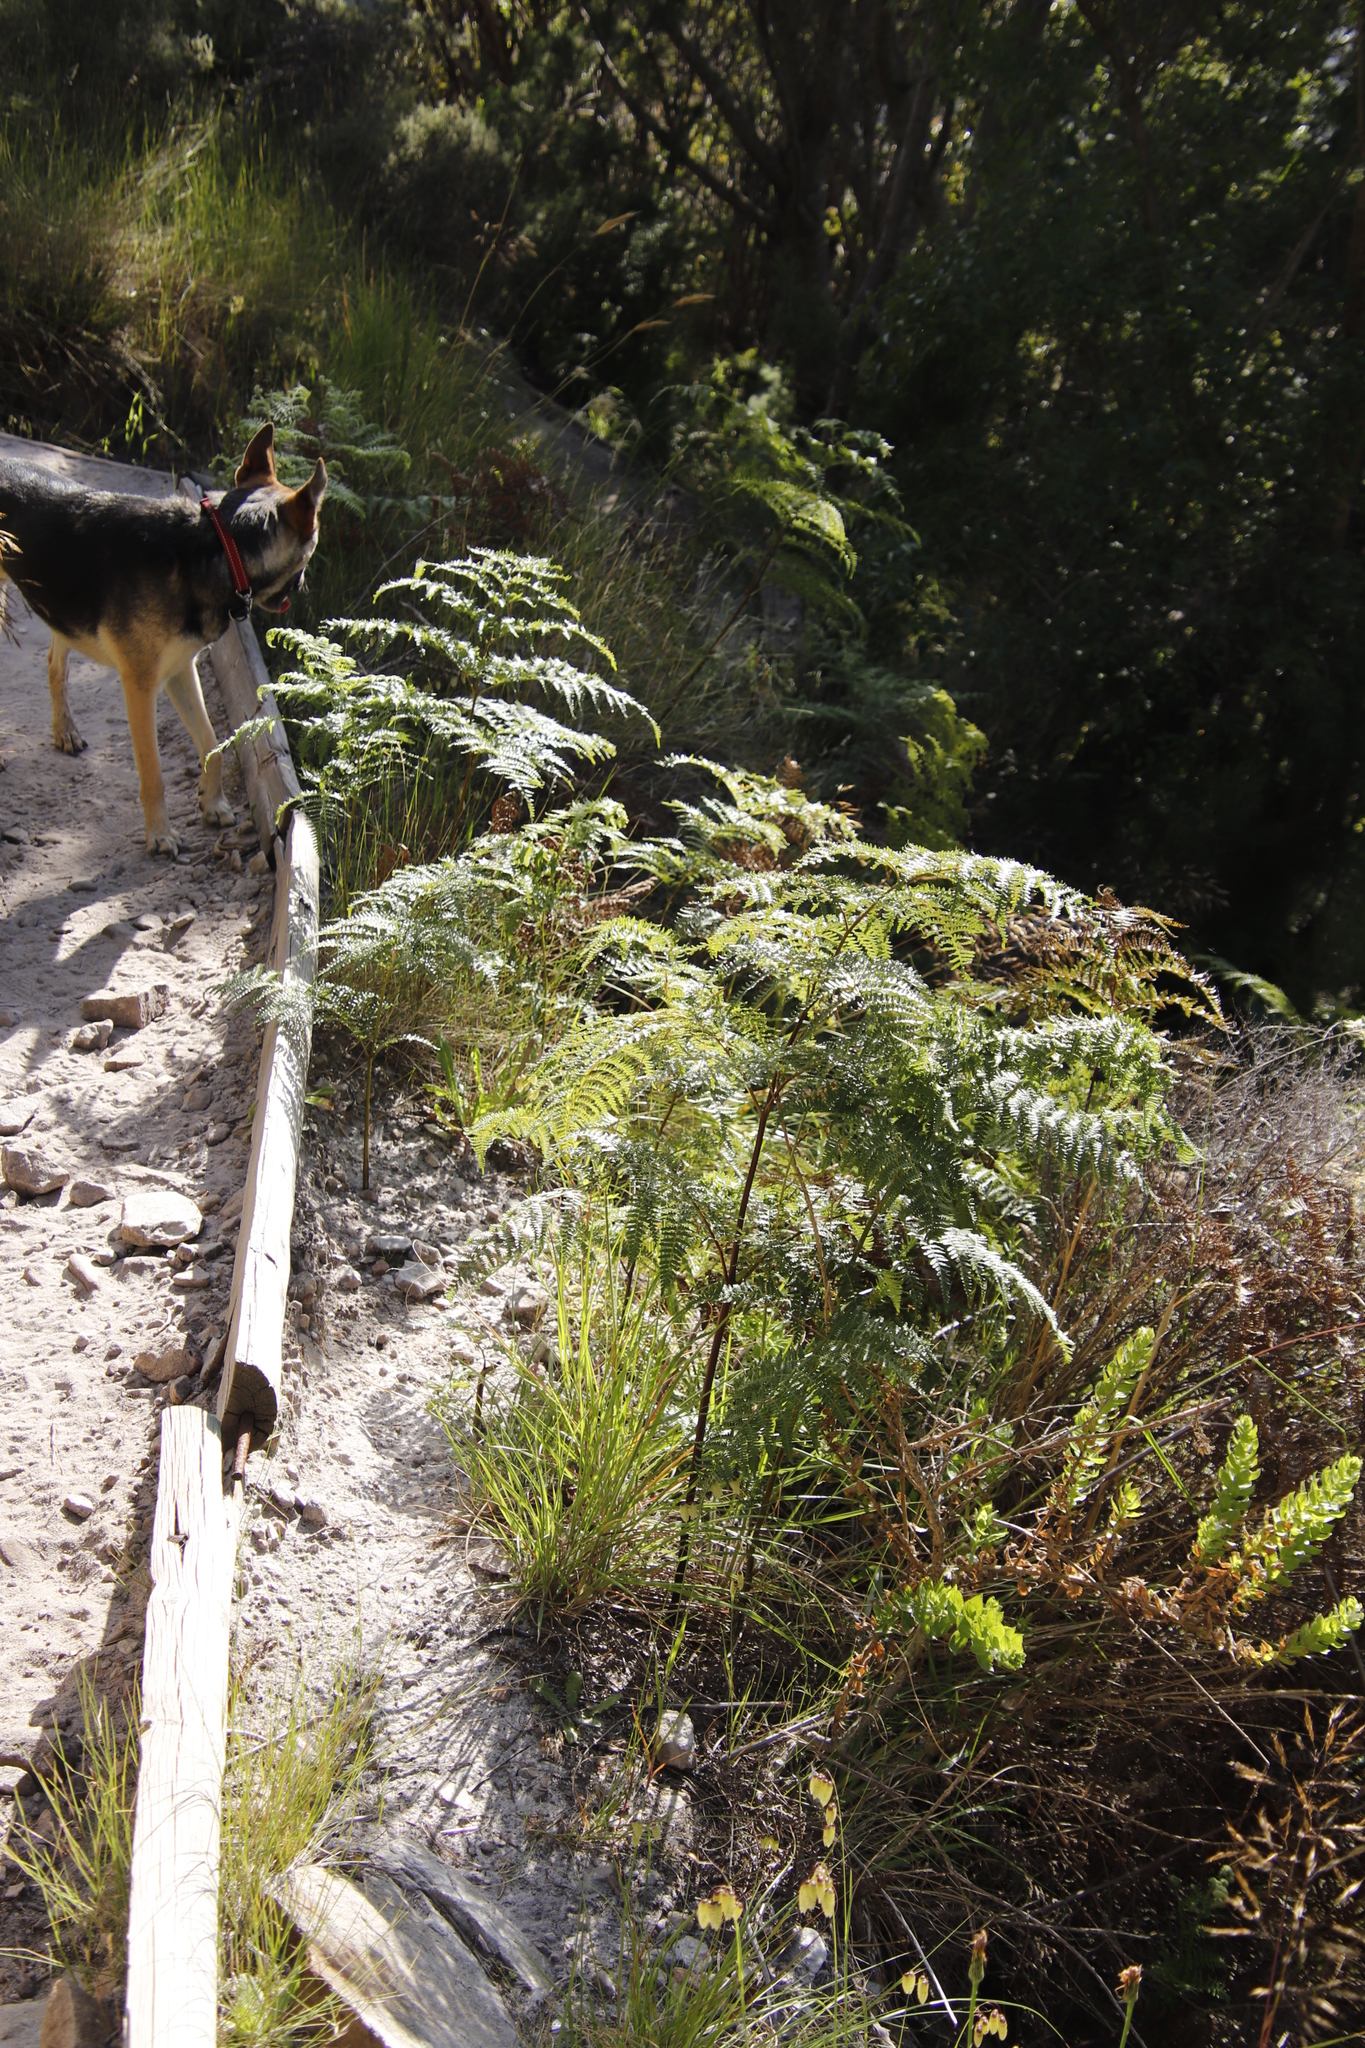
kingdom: Plantae
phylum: Tracheophyta
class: Polypodiopsida
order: Polypodiales
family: Dennstaedtiaceae
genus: Pteridium
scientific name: Pteridium aquilinum
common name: Bracken
